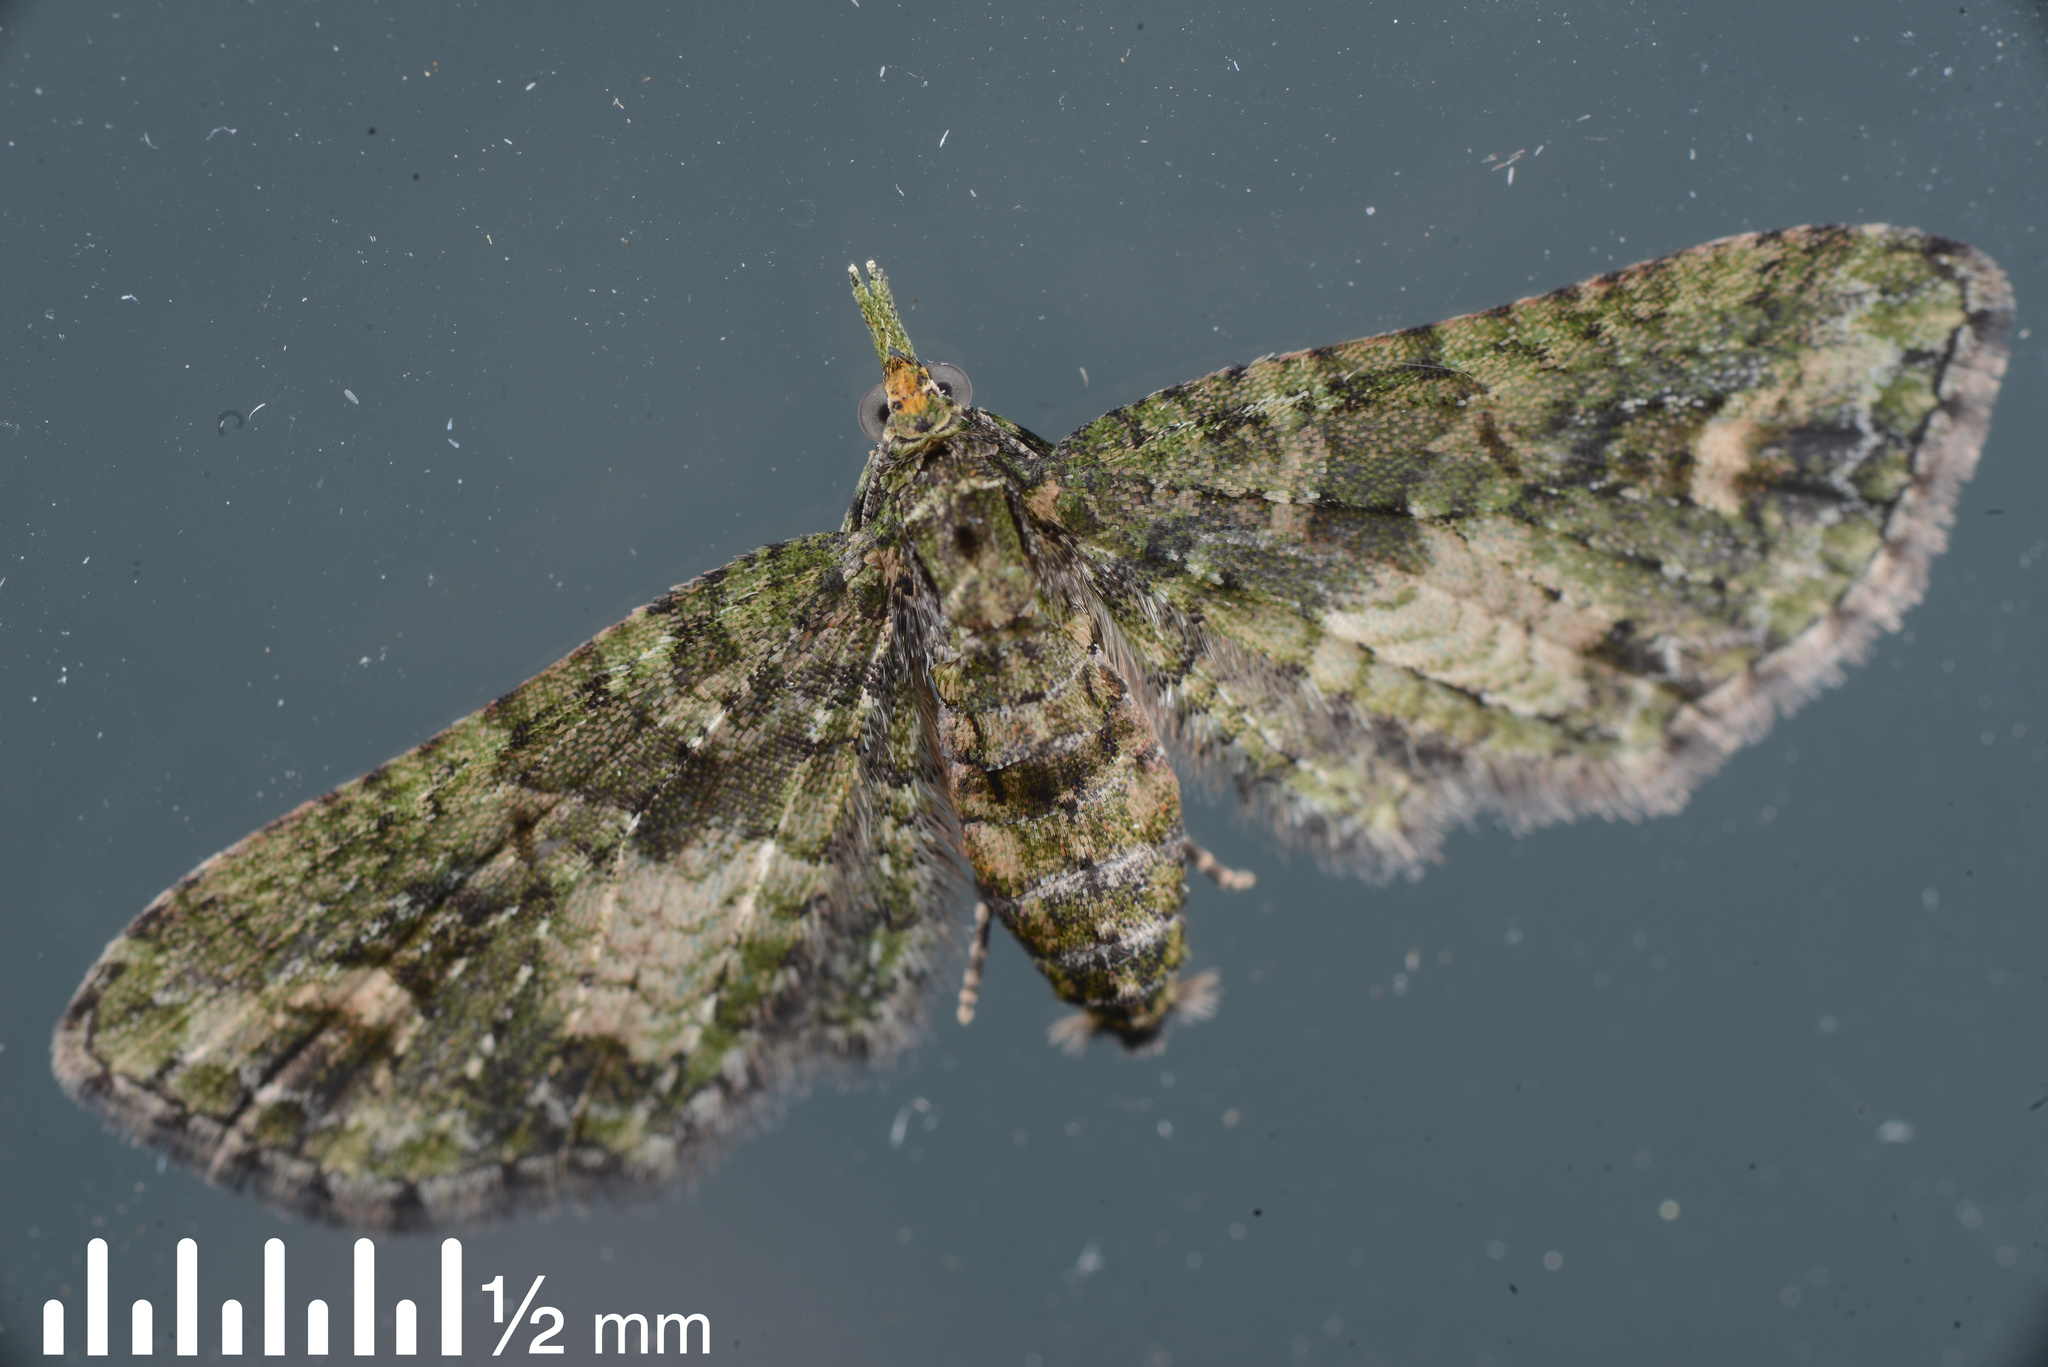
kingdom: Animalia
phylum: Arthropoda
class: Insecta
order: Lepidoptera
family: Geometridae
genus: Idaea
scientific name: Idaea mutanda
